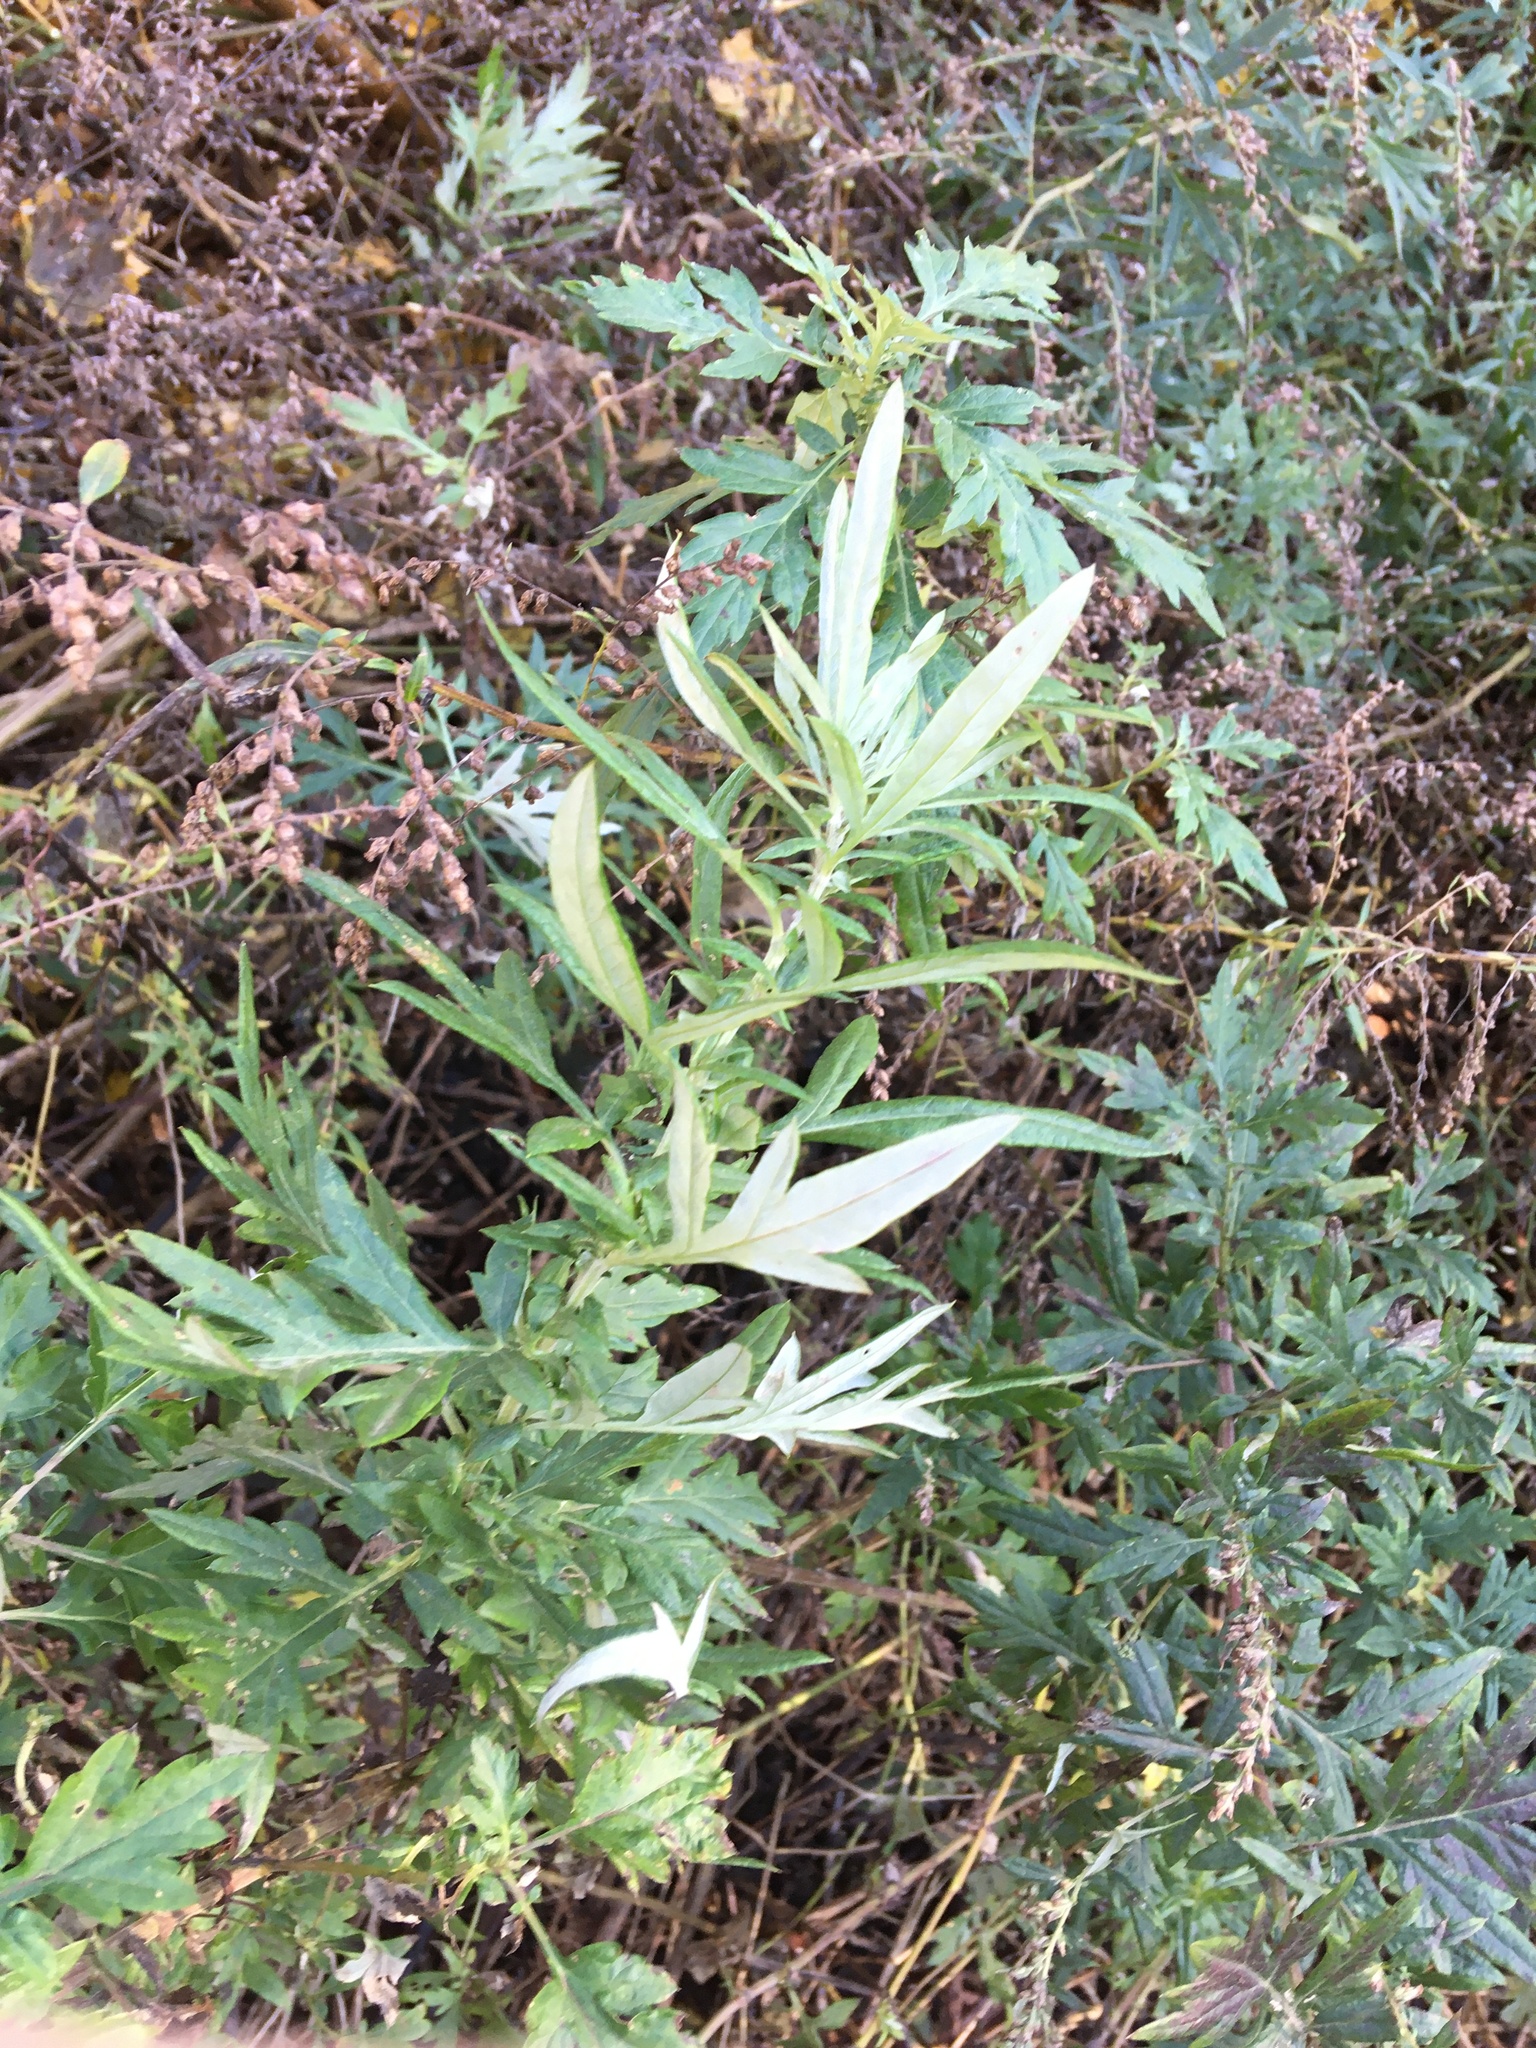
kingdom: Plantae
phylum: Tracheophyta
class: Magnoliopsida
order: Asterales
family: Asteraceae
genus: Artemisia
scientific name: Artemisia vulgaris
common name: Mugwort
